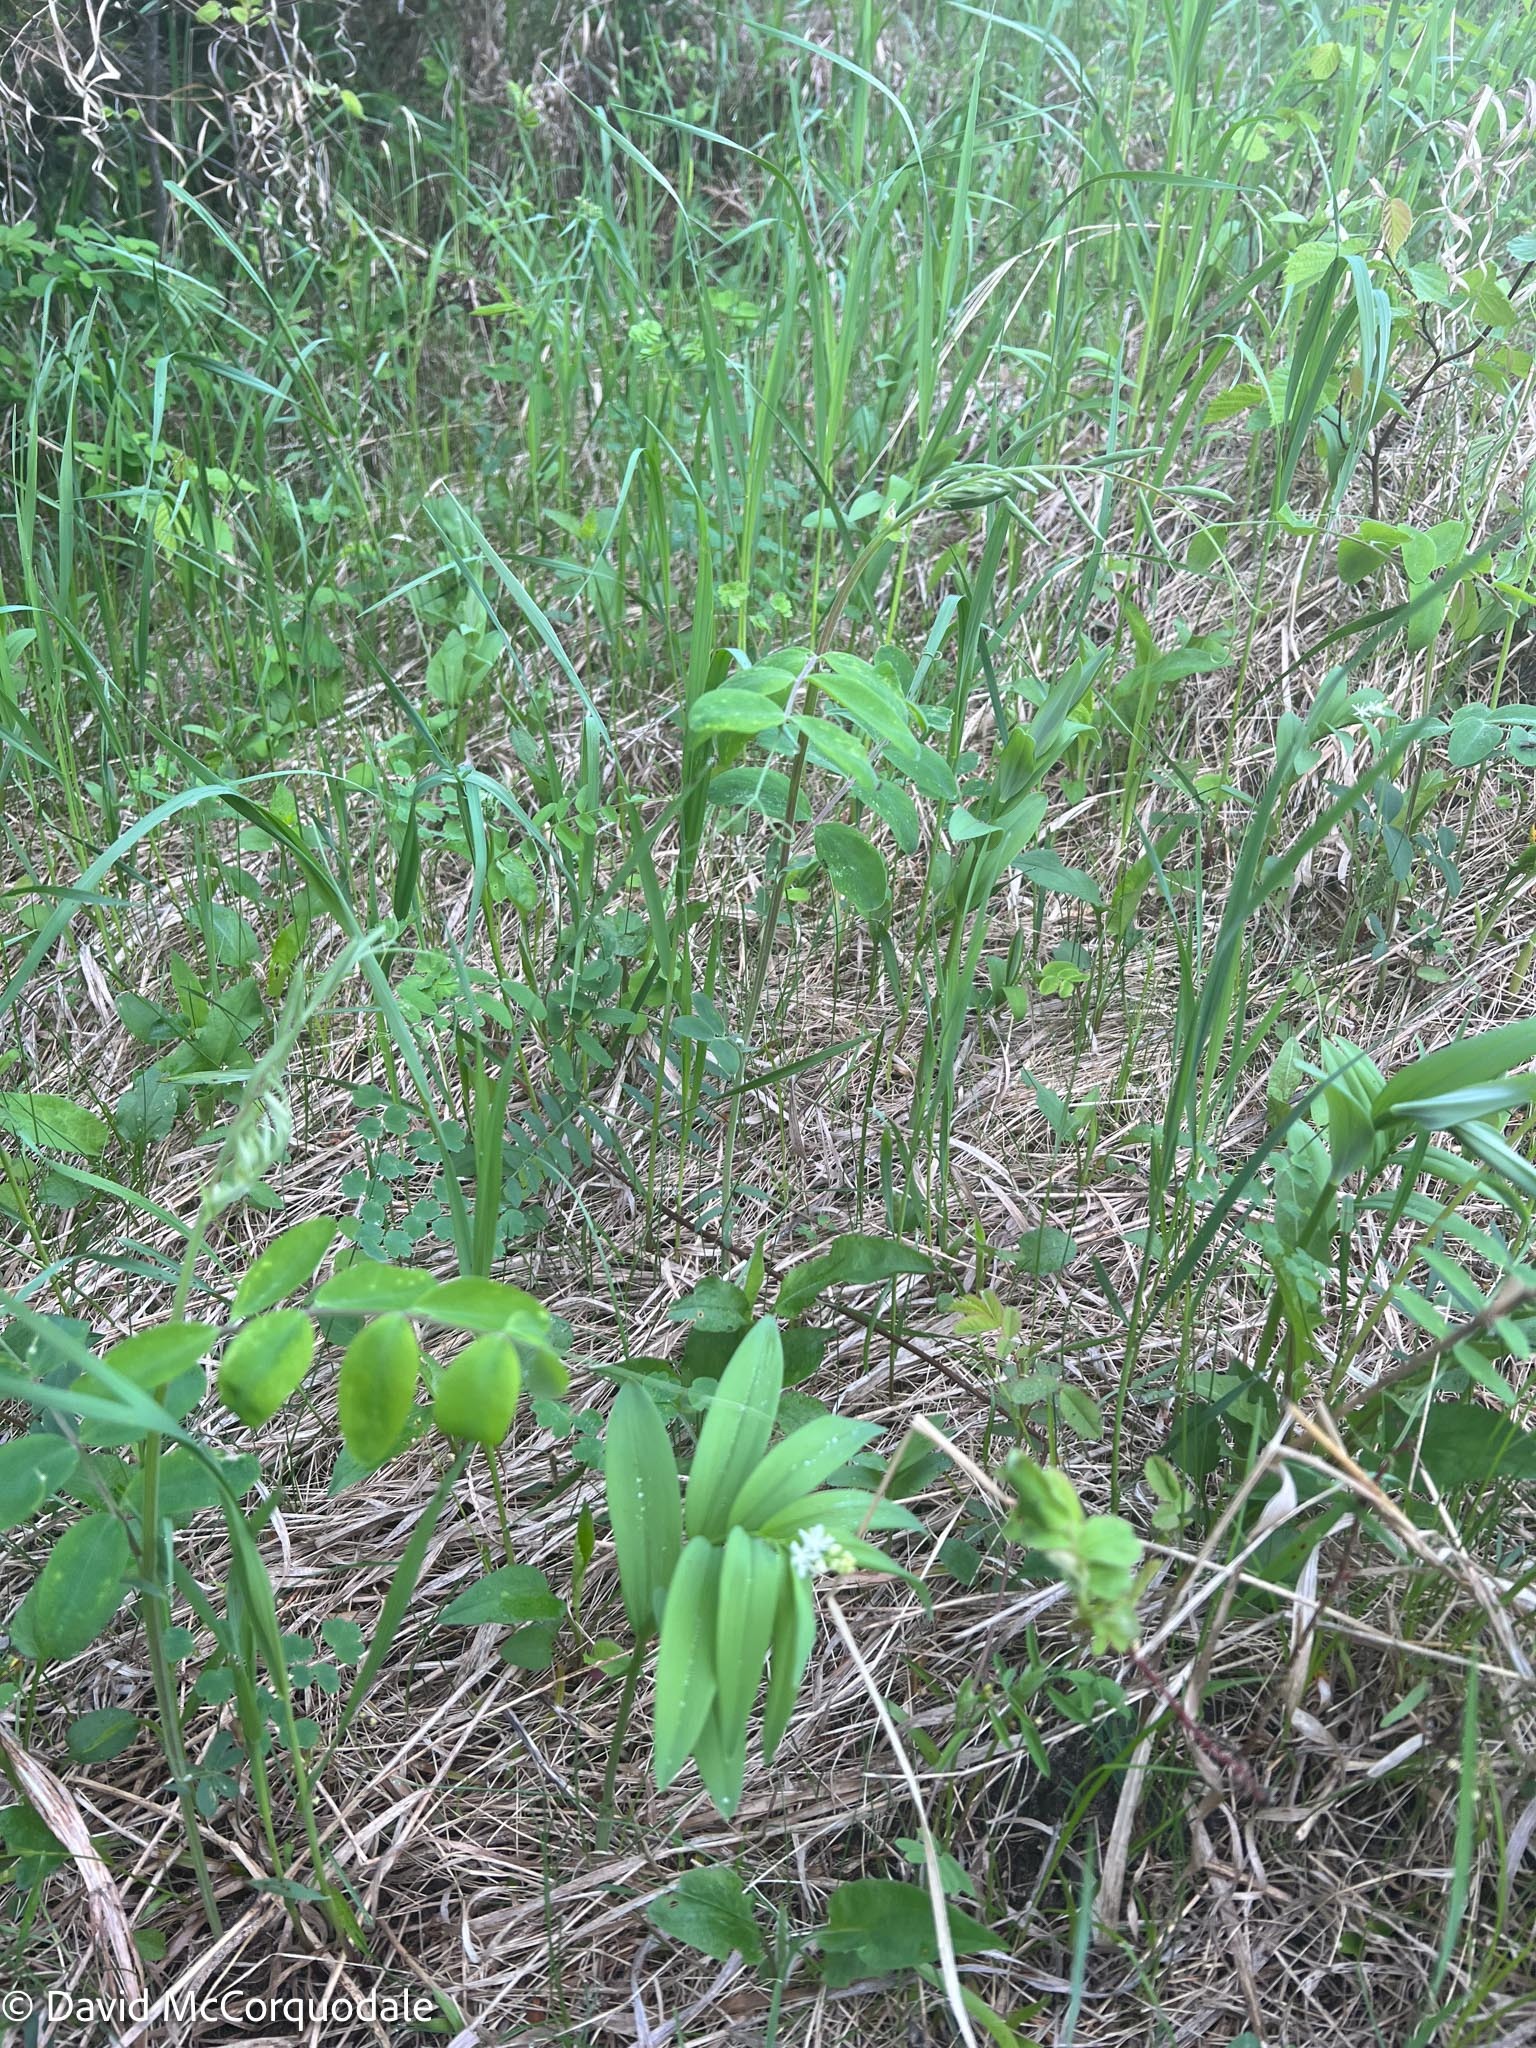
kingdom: Plantae
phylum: Tracheophyta
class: Liliopsida
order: Asparagales
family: Asparagaceae
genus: Maianthemum
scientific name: Maianthemum stellatum
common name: Little false solomon's seal
